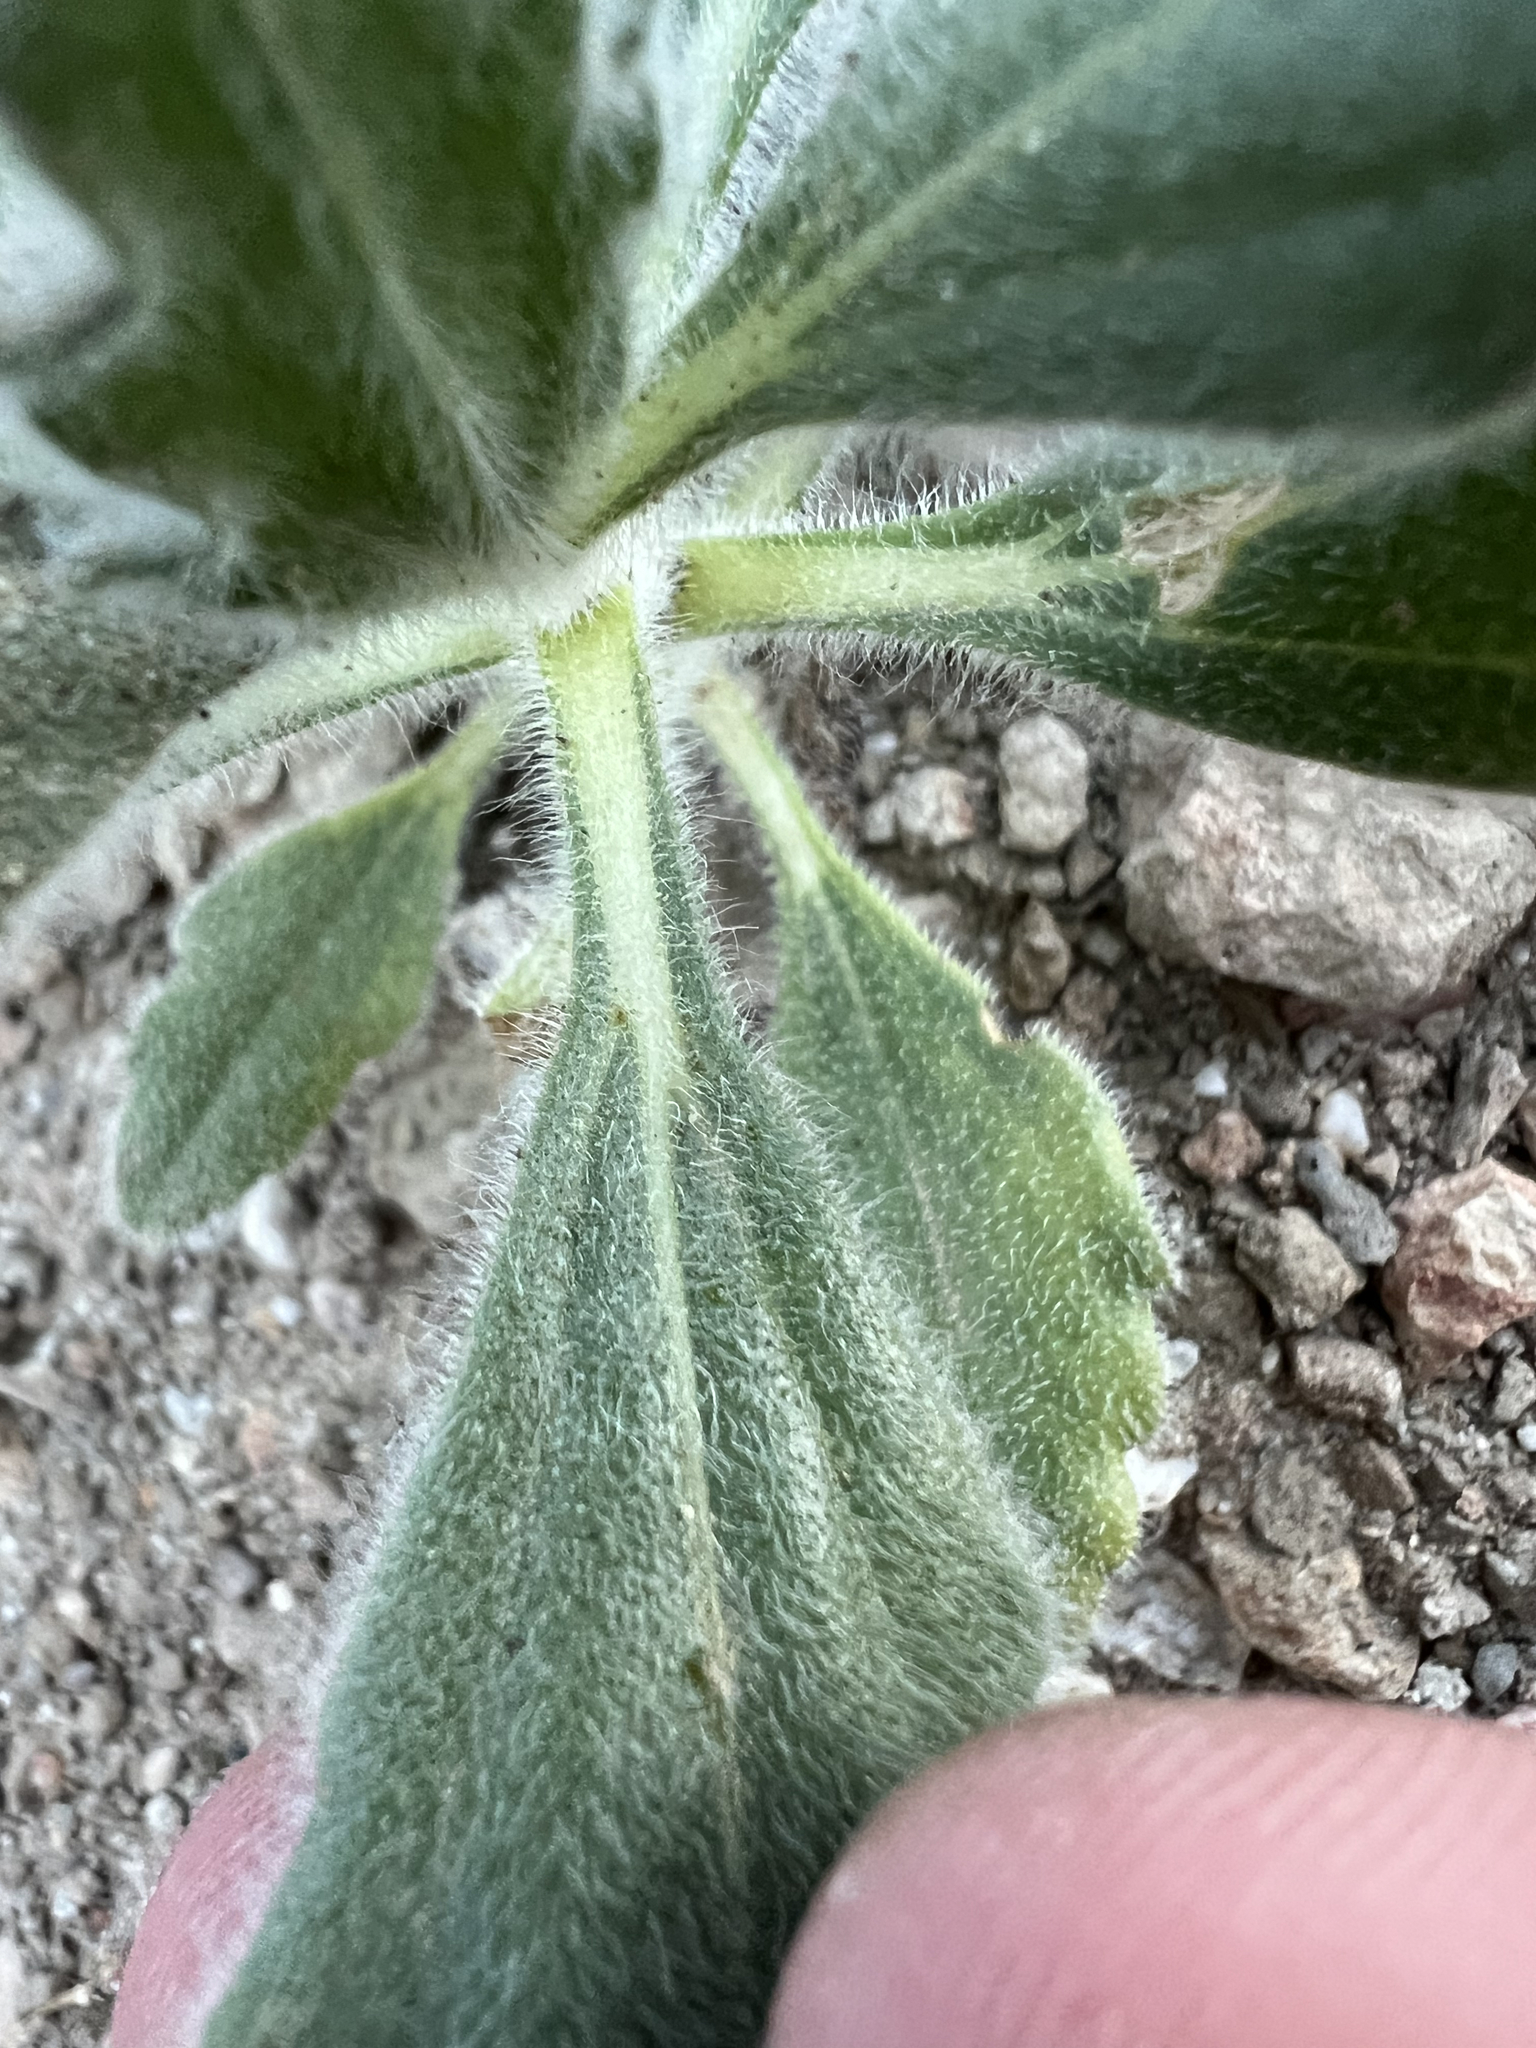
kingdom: Plantae
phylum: Tracheophyta
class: Magnoliopsida
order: Asterales
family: Asteraceae
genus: Geraea
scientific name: Geraea canescens
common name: Desert-gold
